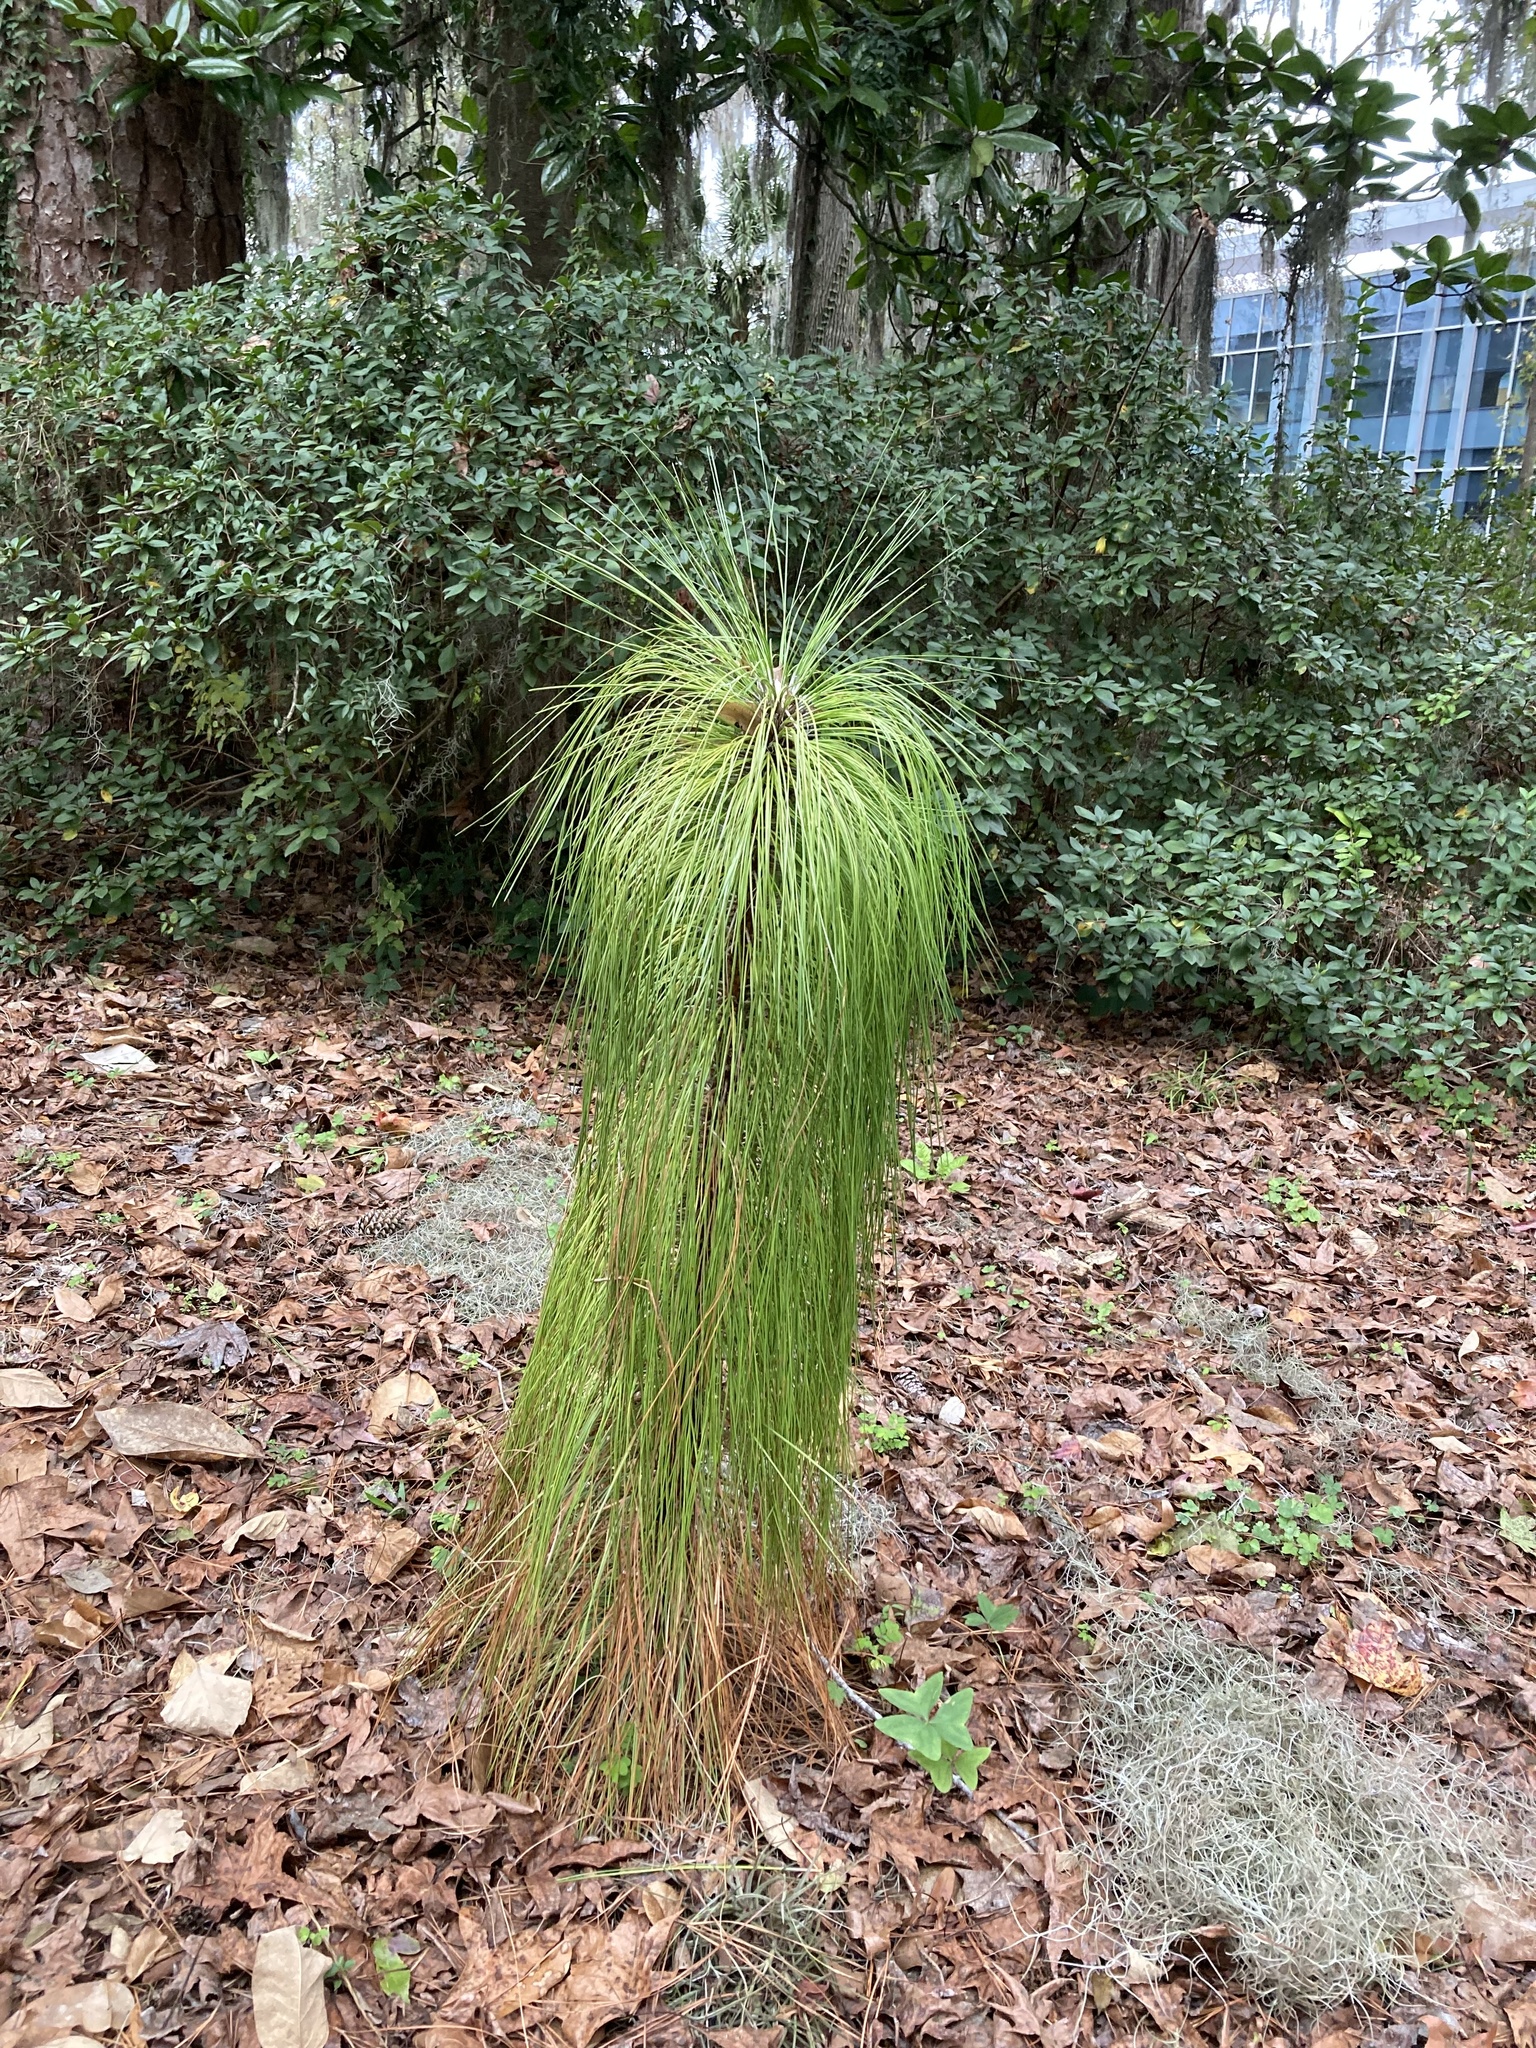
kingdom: Plantae
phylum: Tracheophyta
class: Pinopsida
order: Pinales
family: Pinaceae
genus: Pinus
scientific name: Pinus palustris
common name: Longleaf pine
